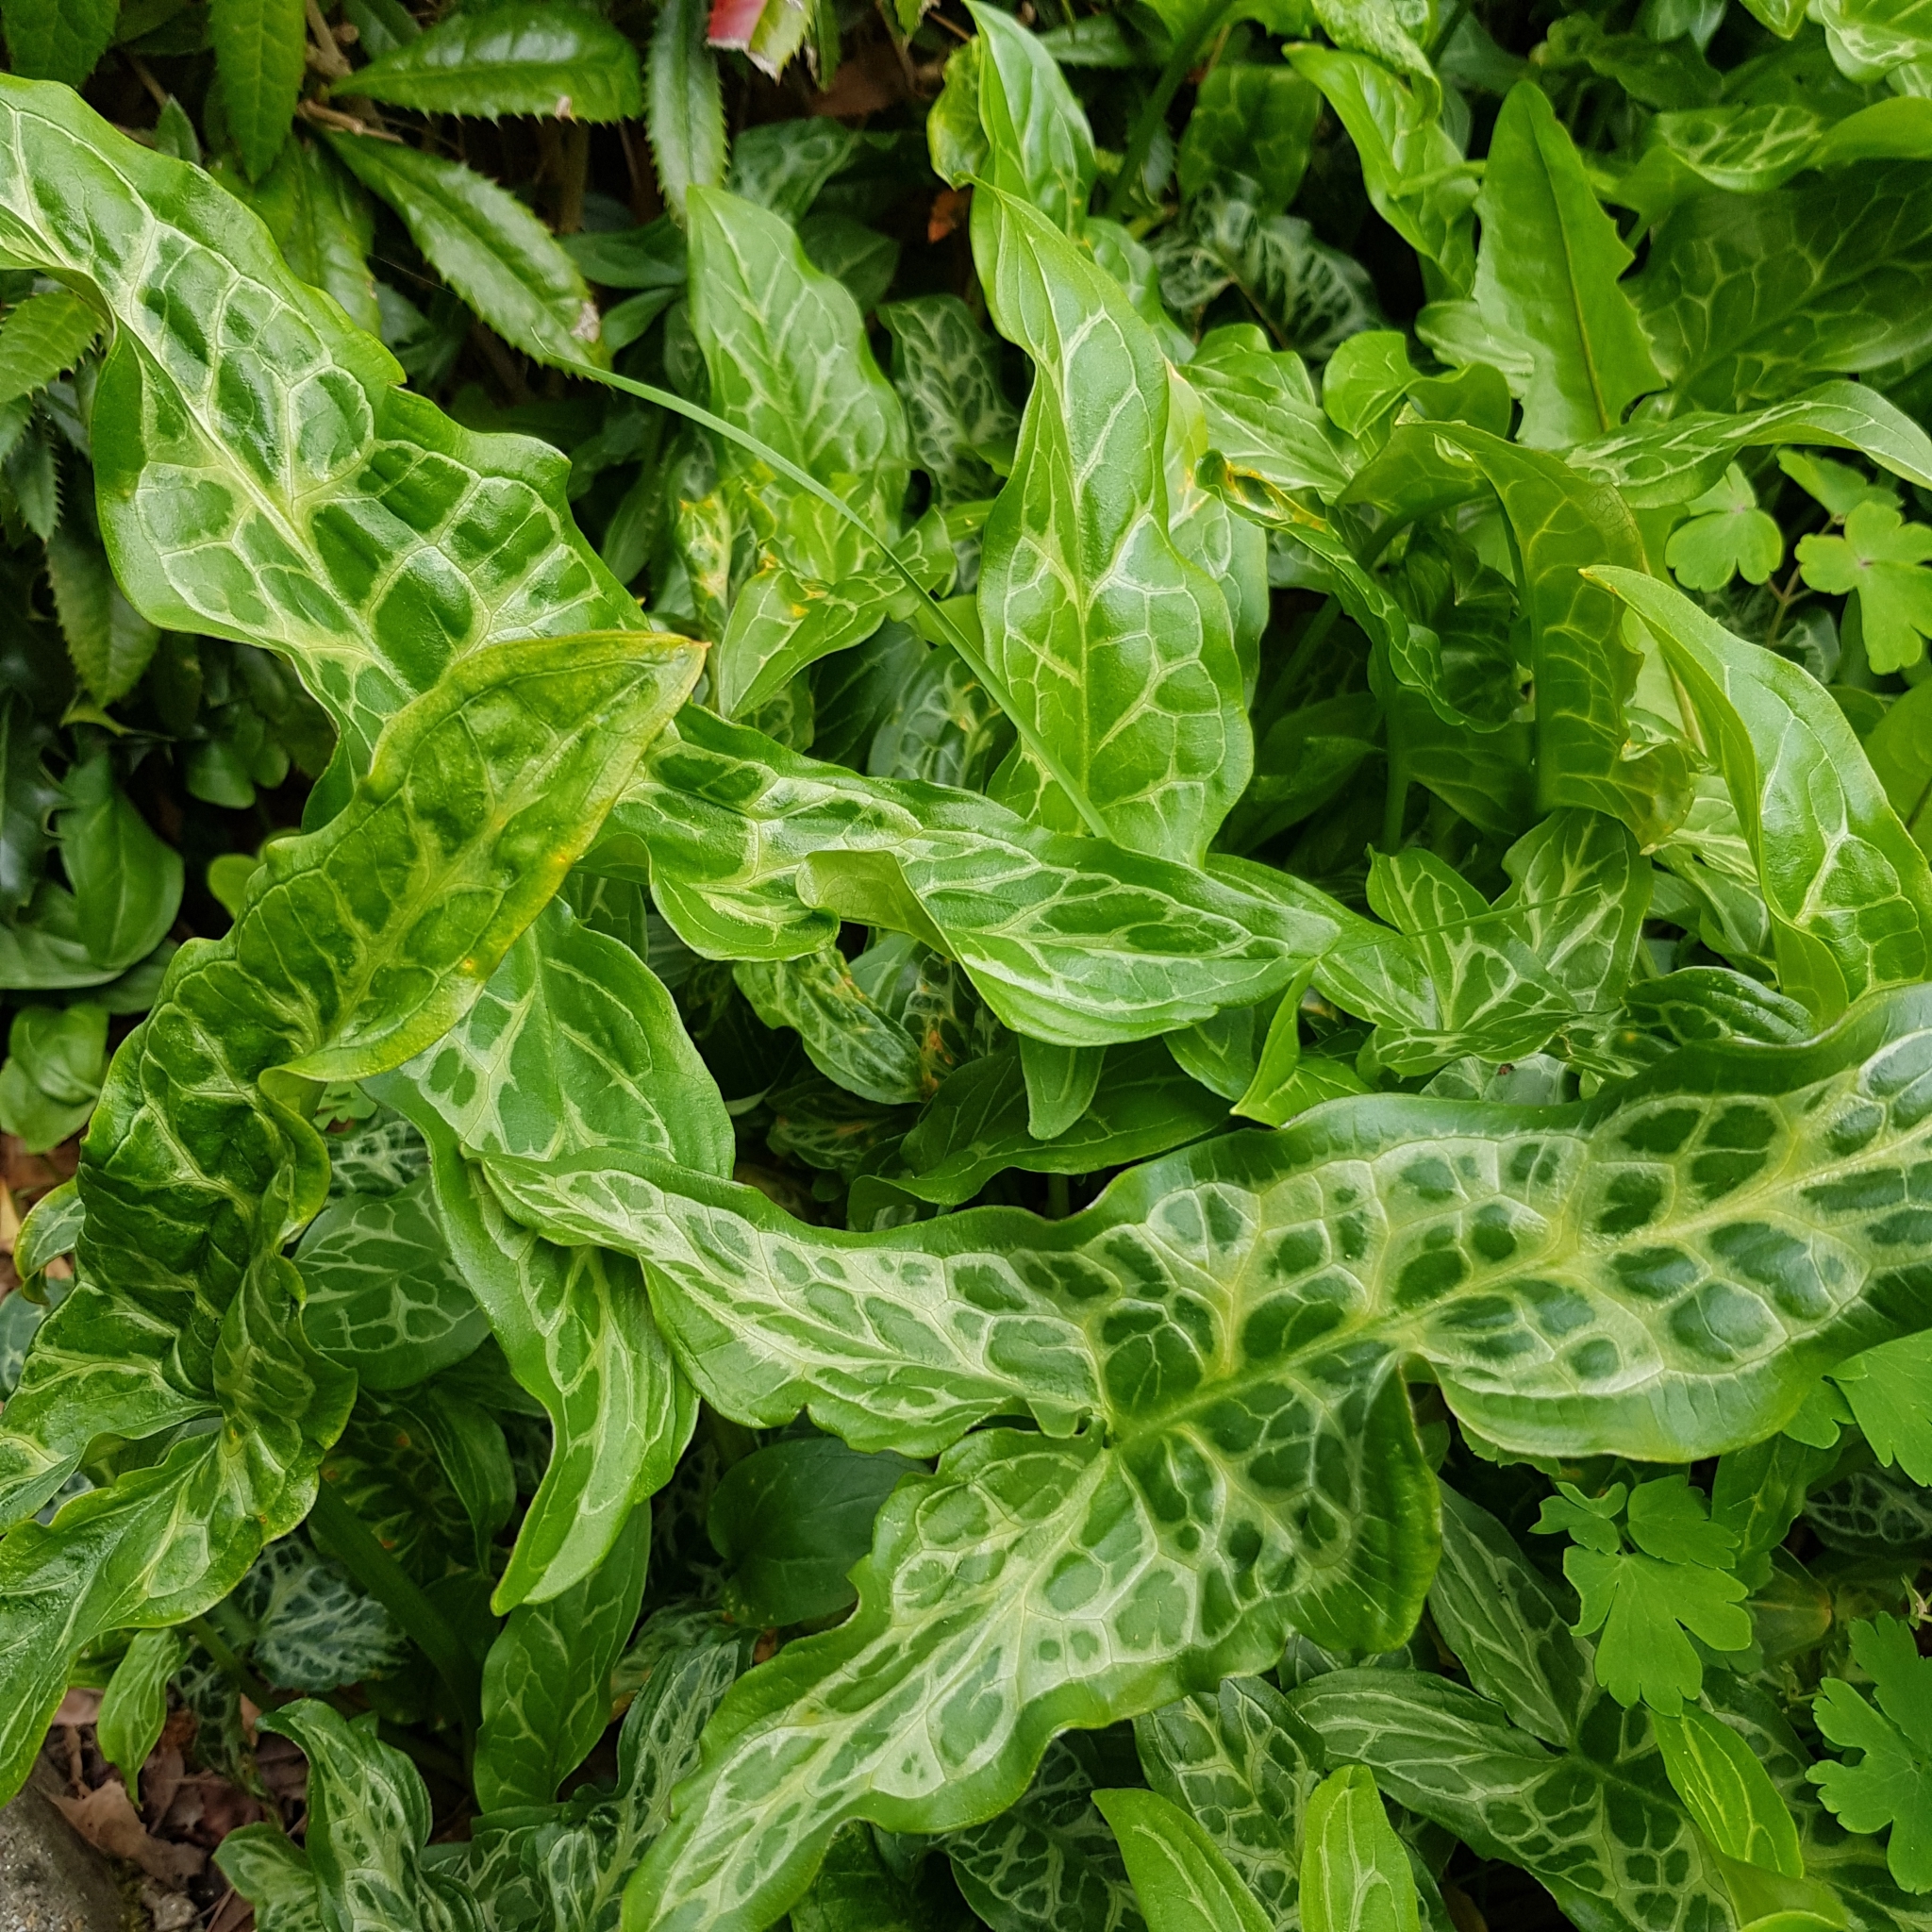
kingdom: Plantae
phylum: Tracheophyta
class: Liliopsida
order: Alismatales
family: Araceae
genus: Arum
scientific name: Arum italicum
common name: Italian lords-and-ladies
